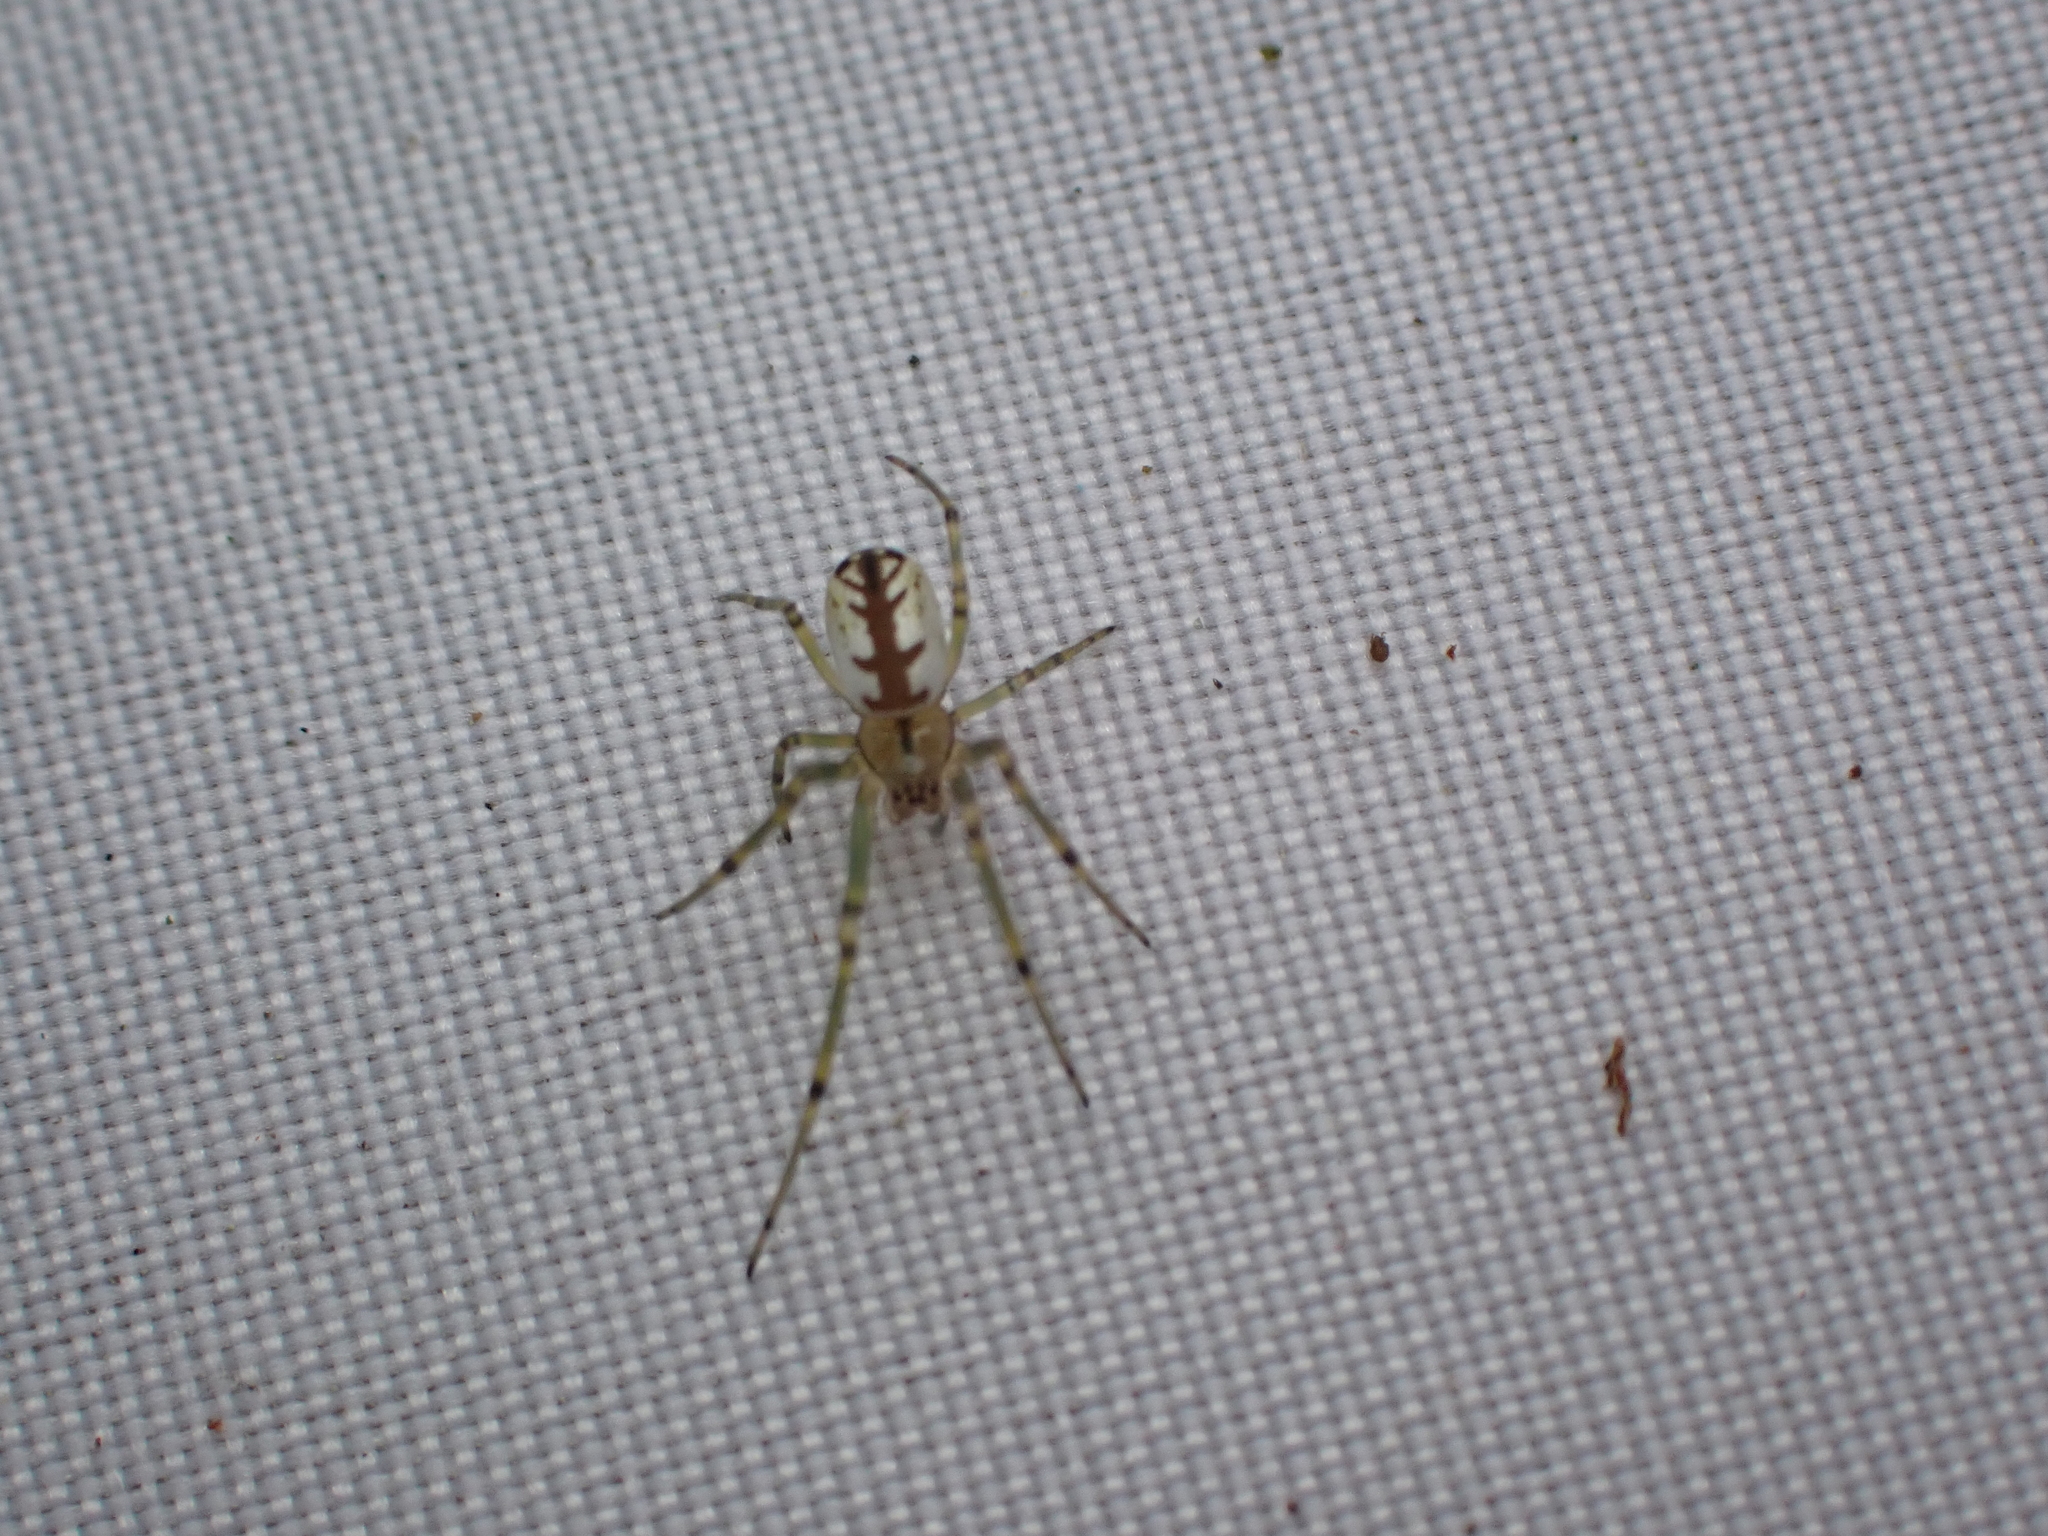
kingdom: Animalia
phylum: Arthropoda
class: Arachnida
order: Araneae
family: Tetragnathidae
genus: Leucauge
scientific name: Leucauge venusta
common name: Longjawed orb weavers
